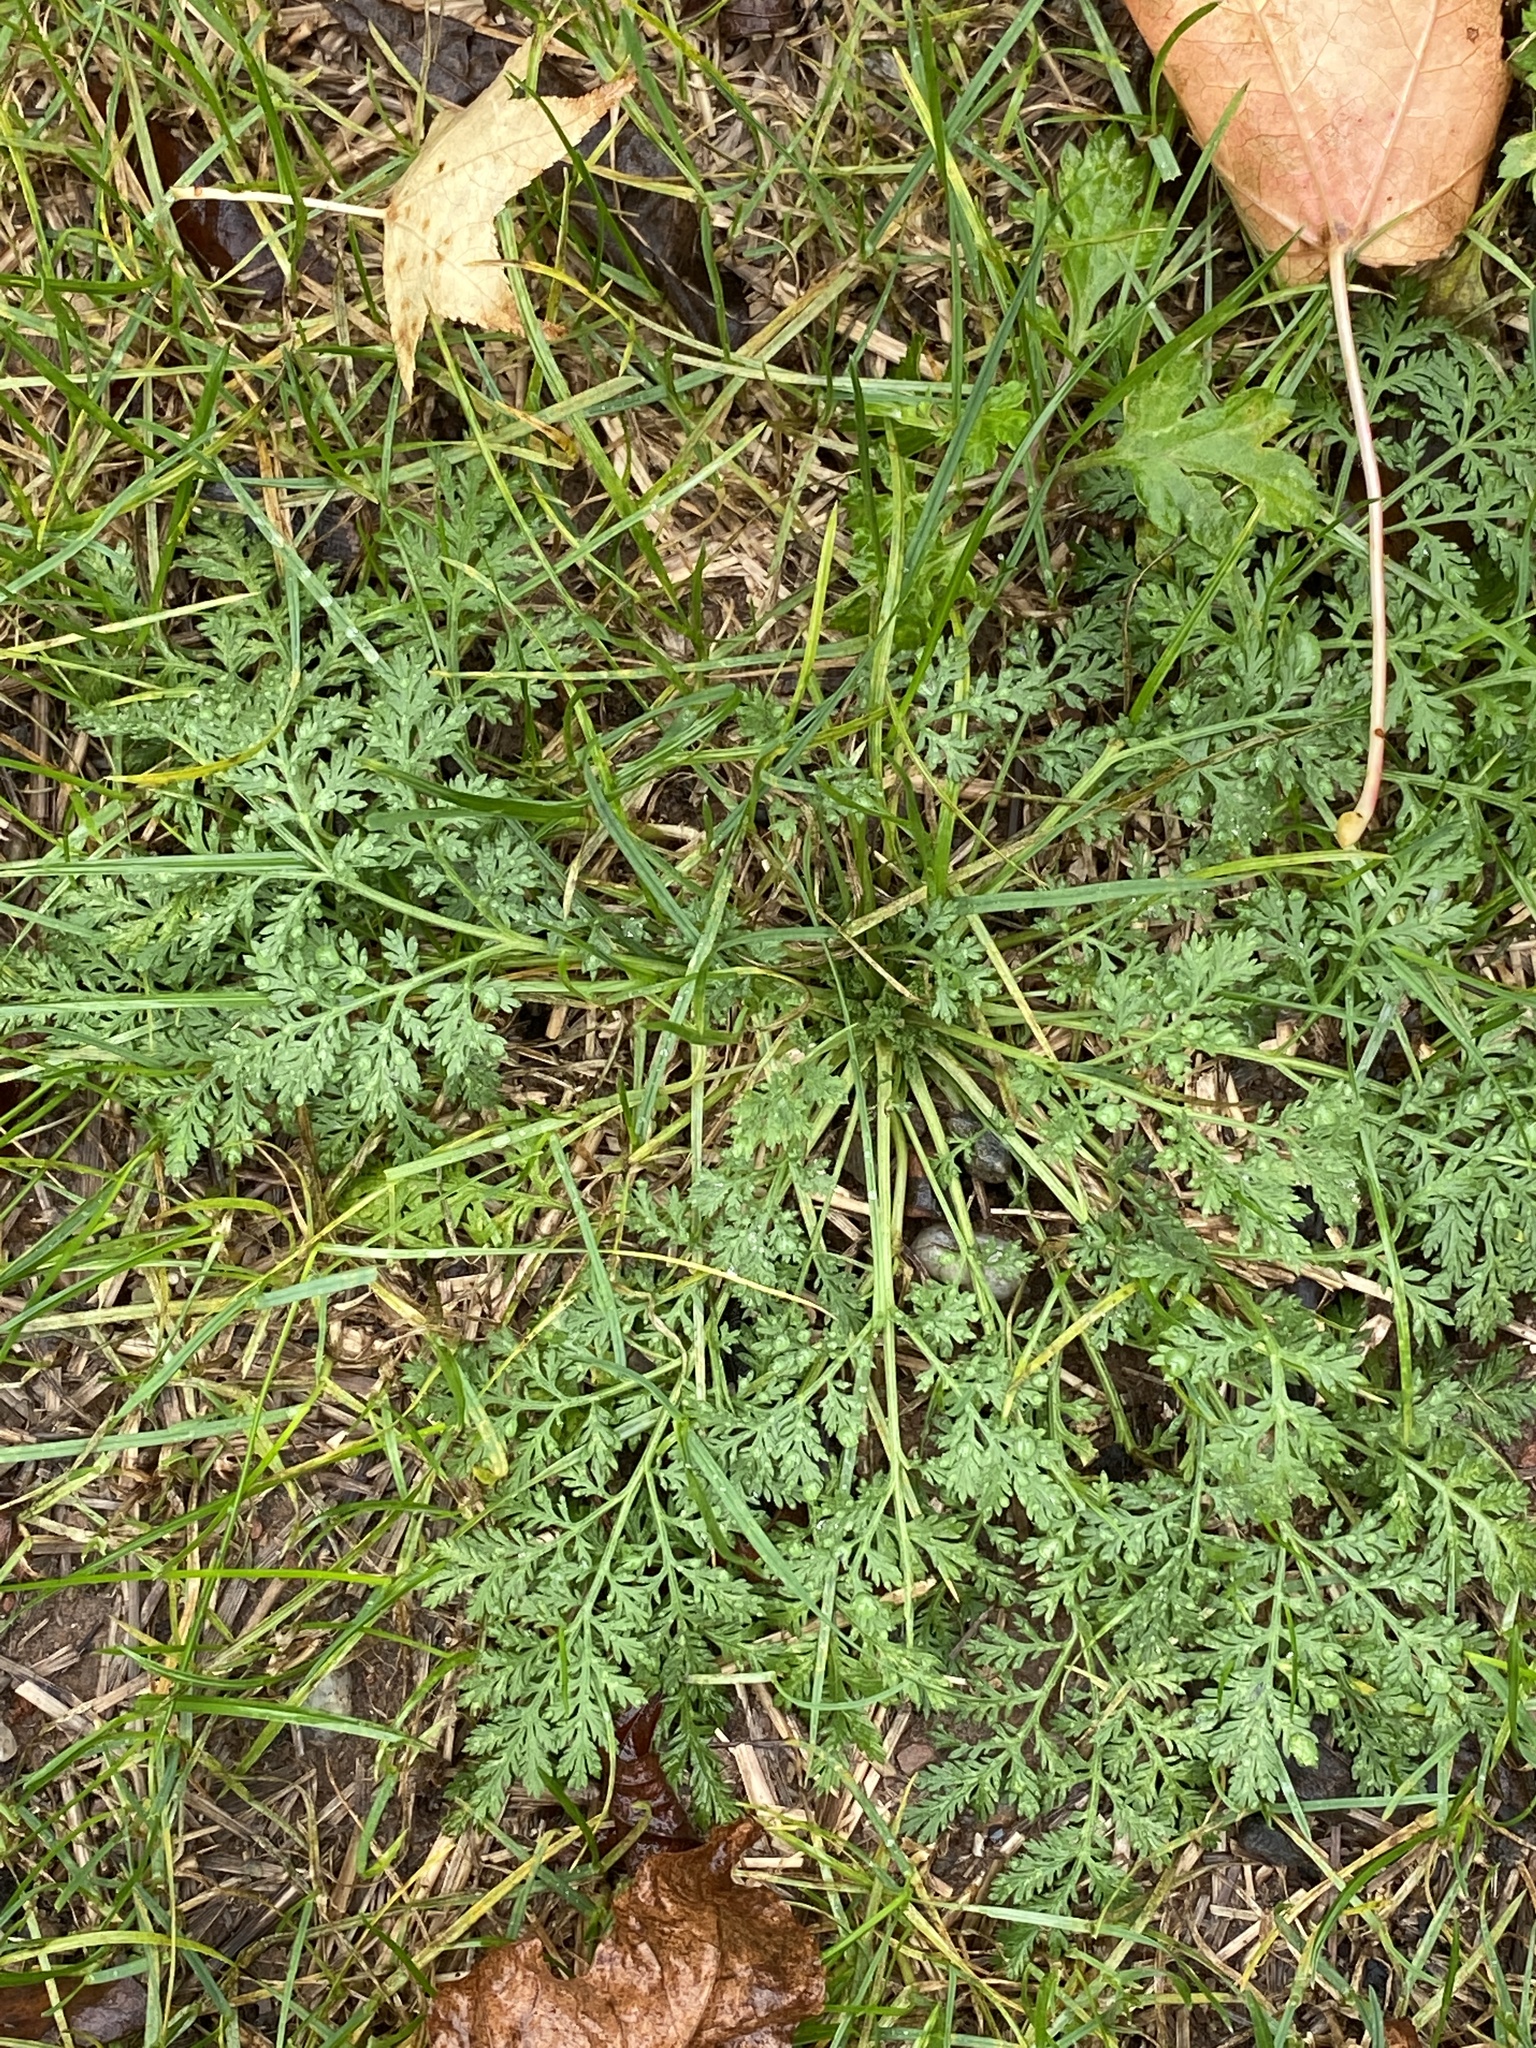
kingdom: Plantae
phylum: Tracheophyta
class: Magnoliopsida
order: Asterales
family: Asteraceae
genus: Artemisia
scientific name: Artemisia annua
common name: Sweet sagewort
